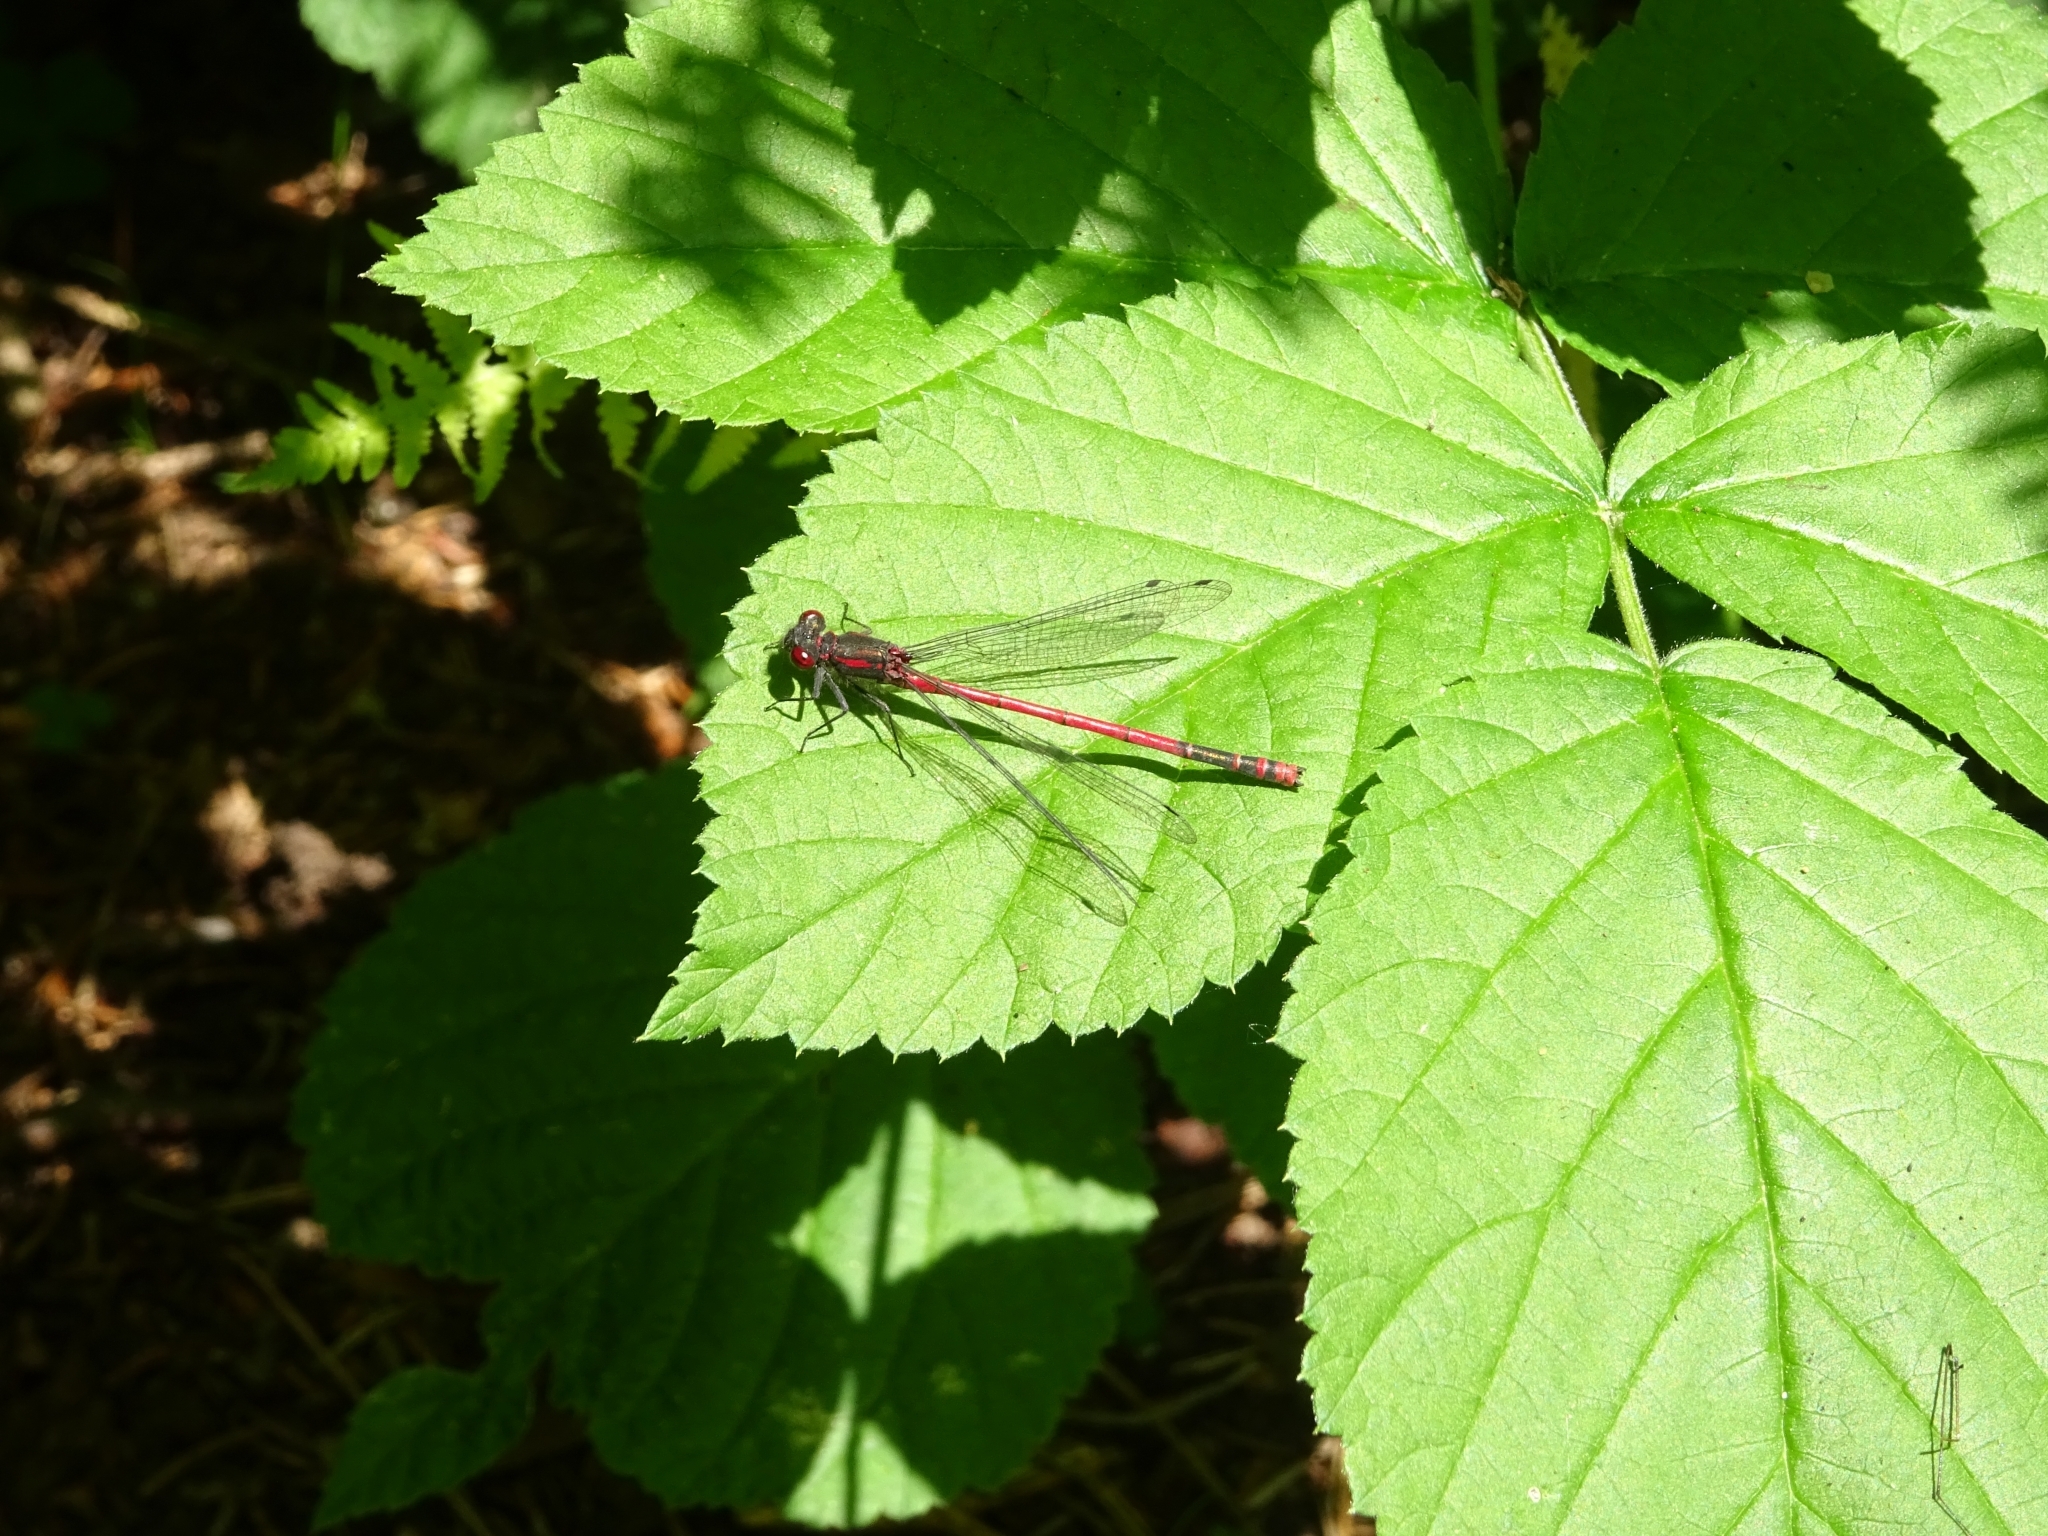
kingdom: Animalia
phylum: Arthropoda
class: Insecta
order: Odonata
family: Coenagrionidae
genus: Pyrrhosoma
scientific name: Pyrrhosoma nymphula
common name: Large red damsel
